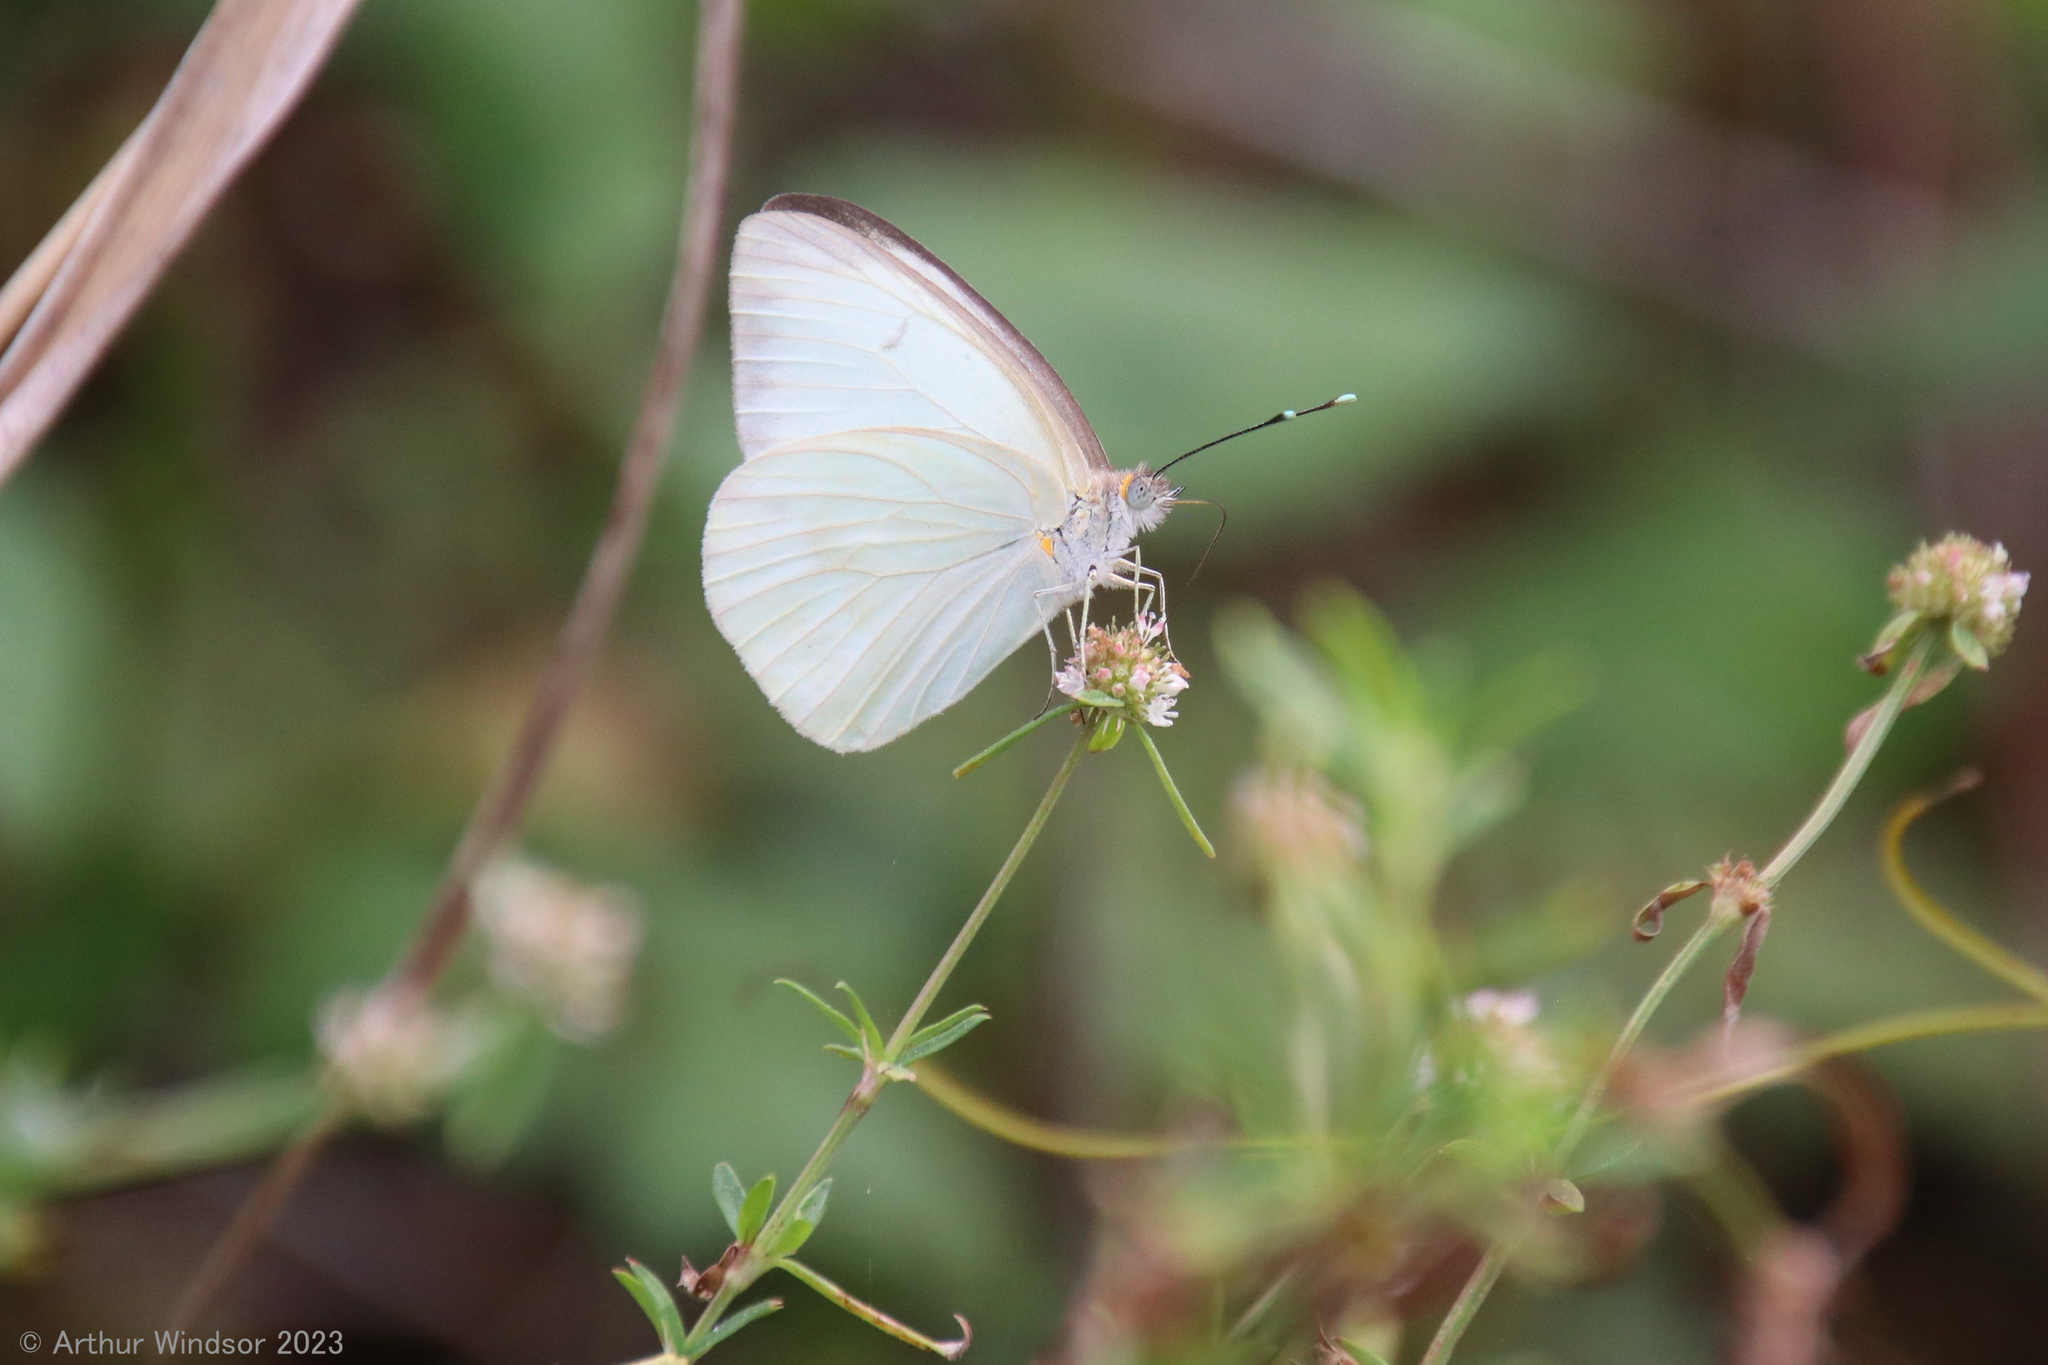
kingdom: Animalia
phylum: Arthropoda
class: Insecta
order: Lepidoptera
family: Pieridae
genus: Ascia
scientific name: Ascia monuste
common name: Great southern white
